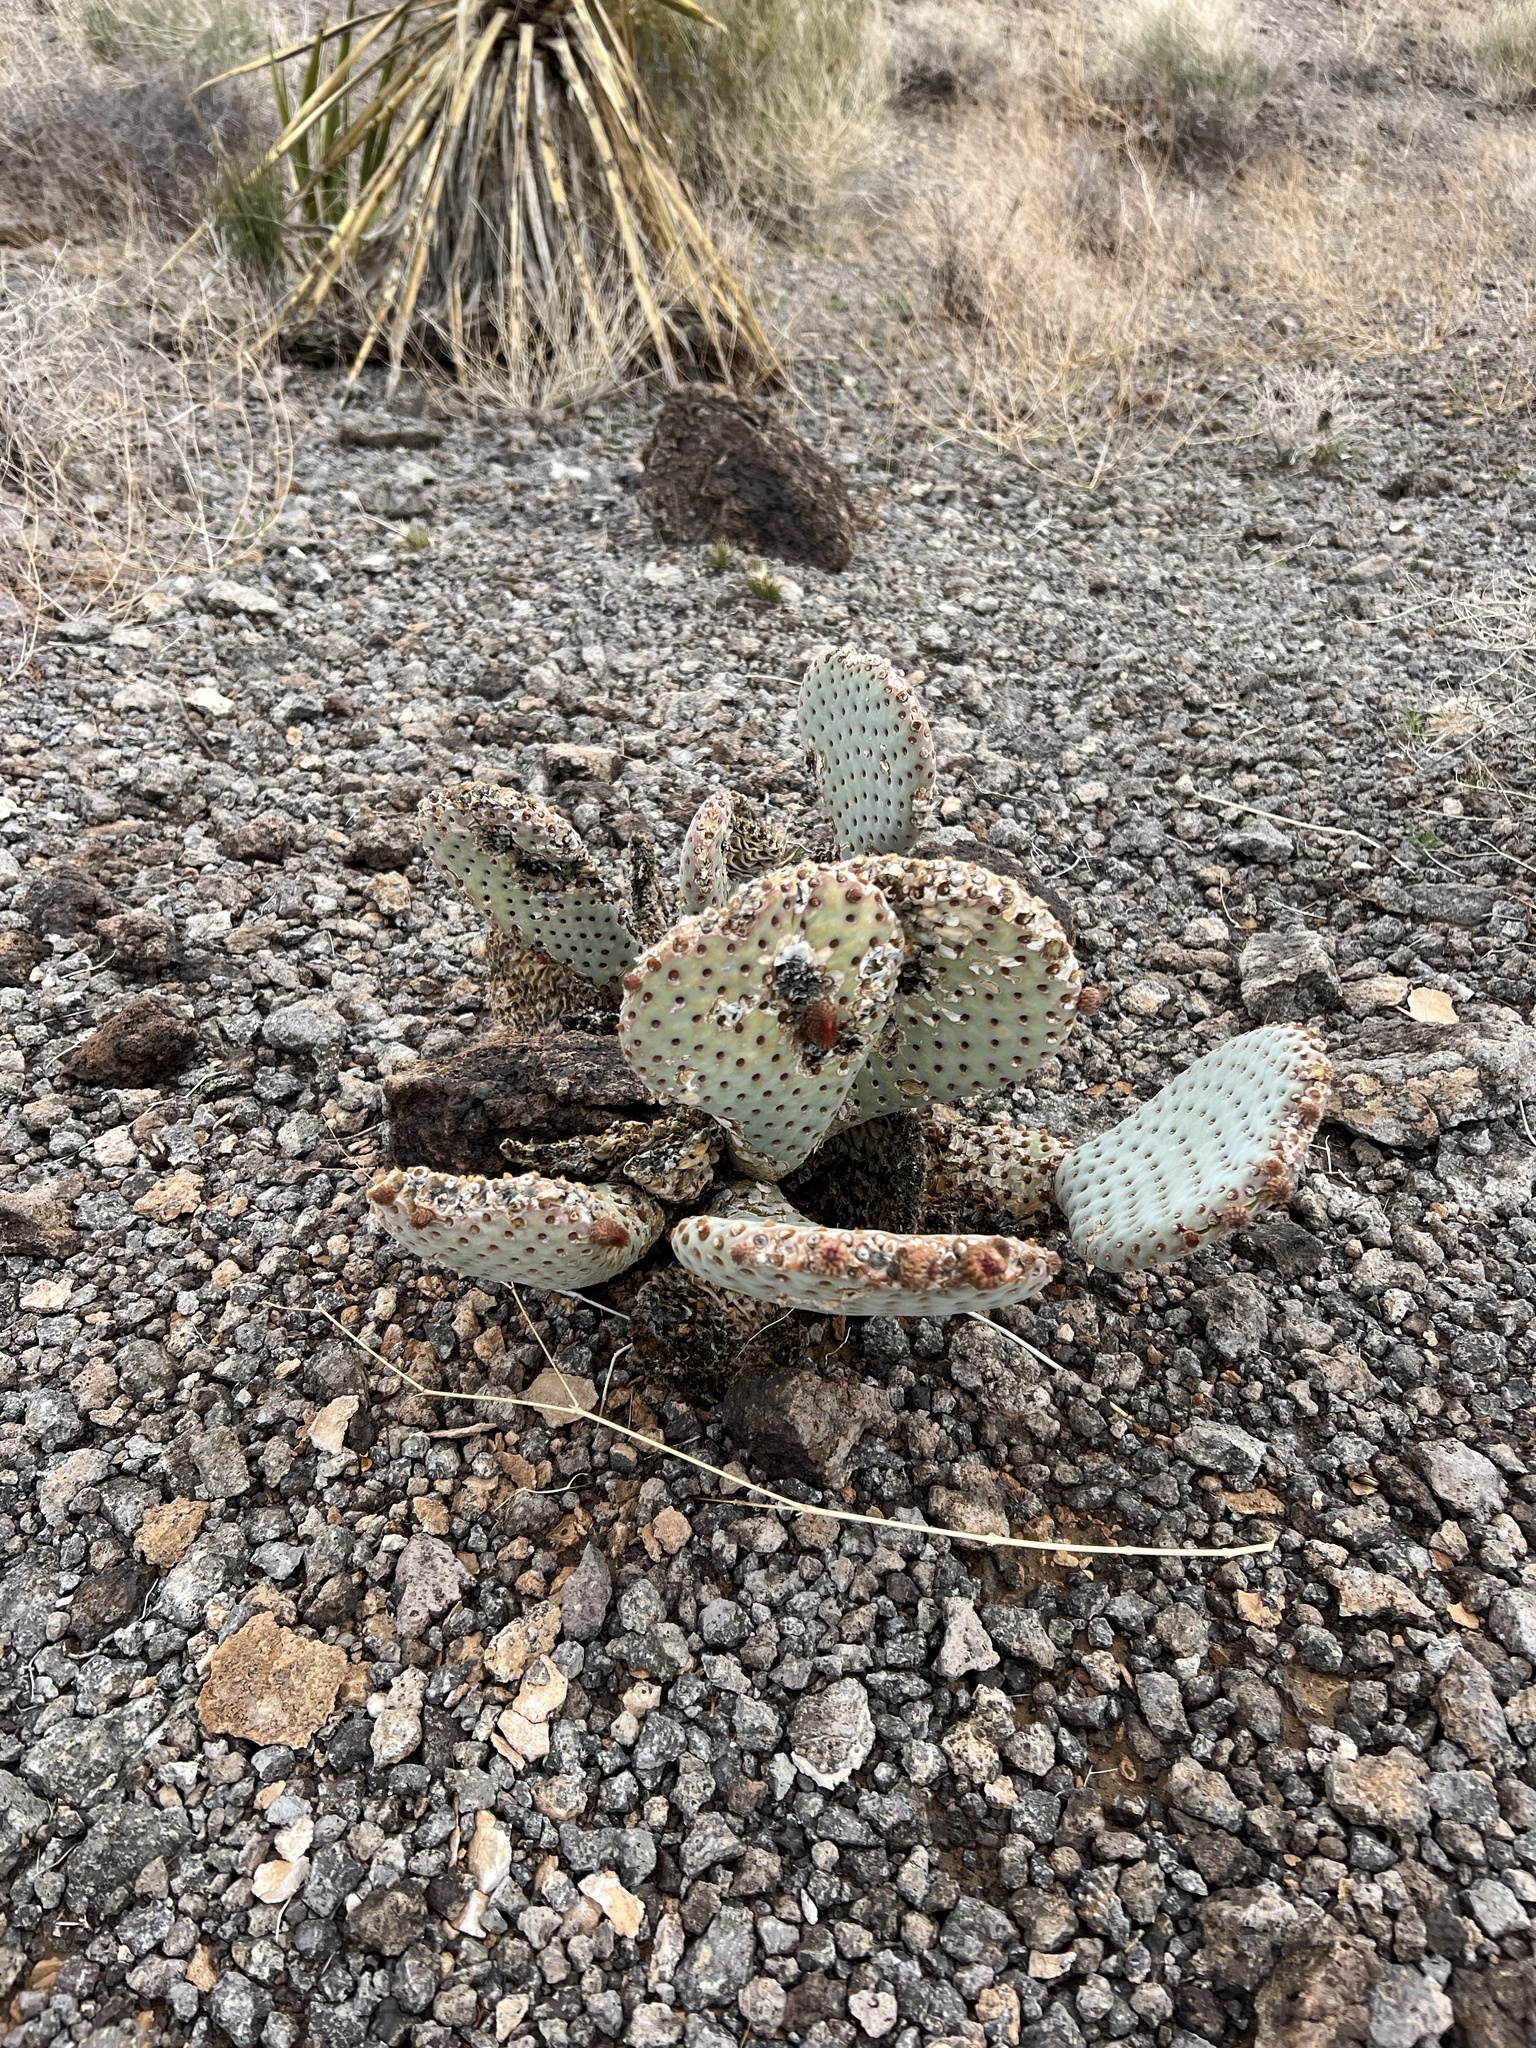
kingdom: Plantae
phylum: Tracheophyta
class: Magnoliopsida
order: Caryophyllales
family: Cactaceae
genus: Opuntia
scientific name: Opuntia basilaris
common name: Beavertail prickly-pear
